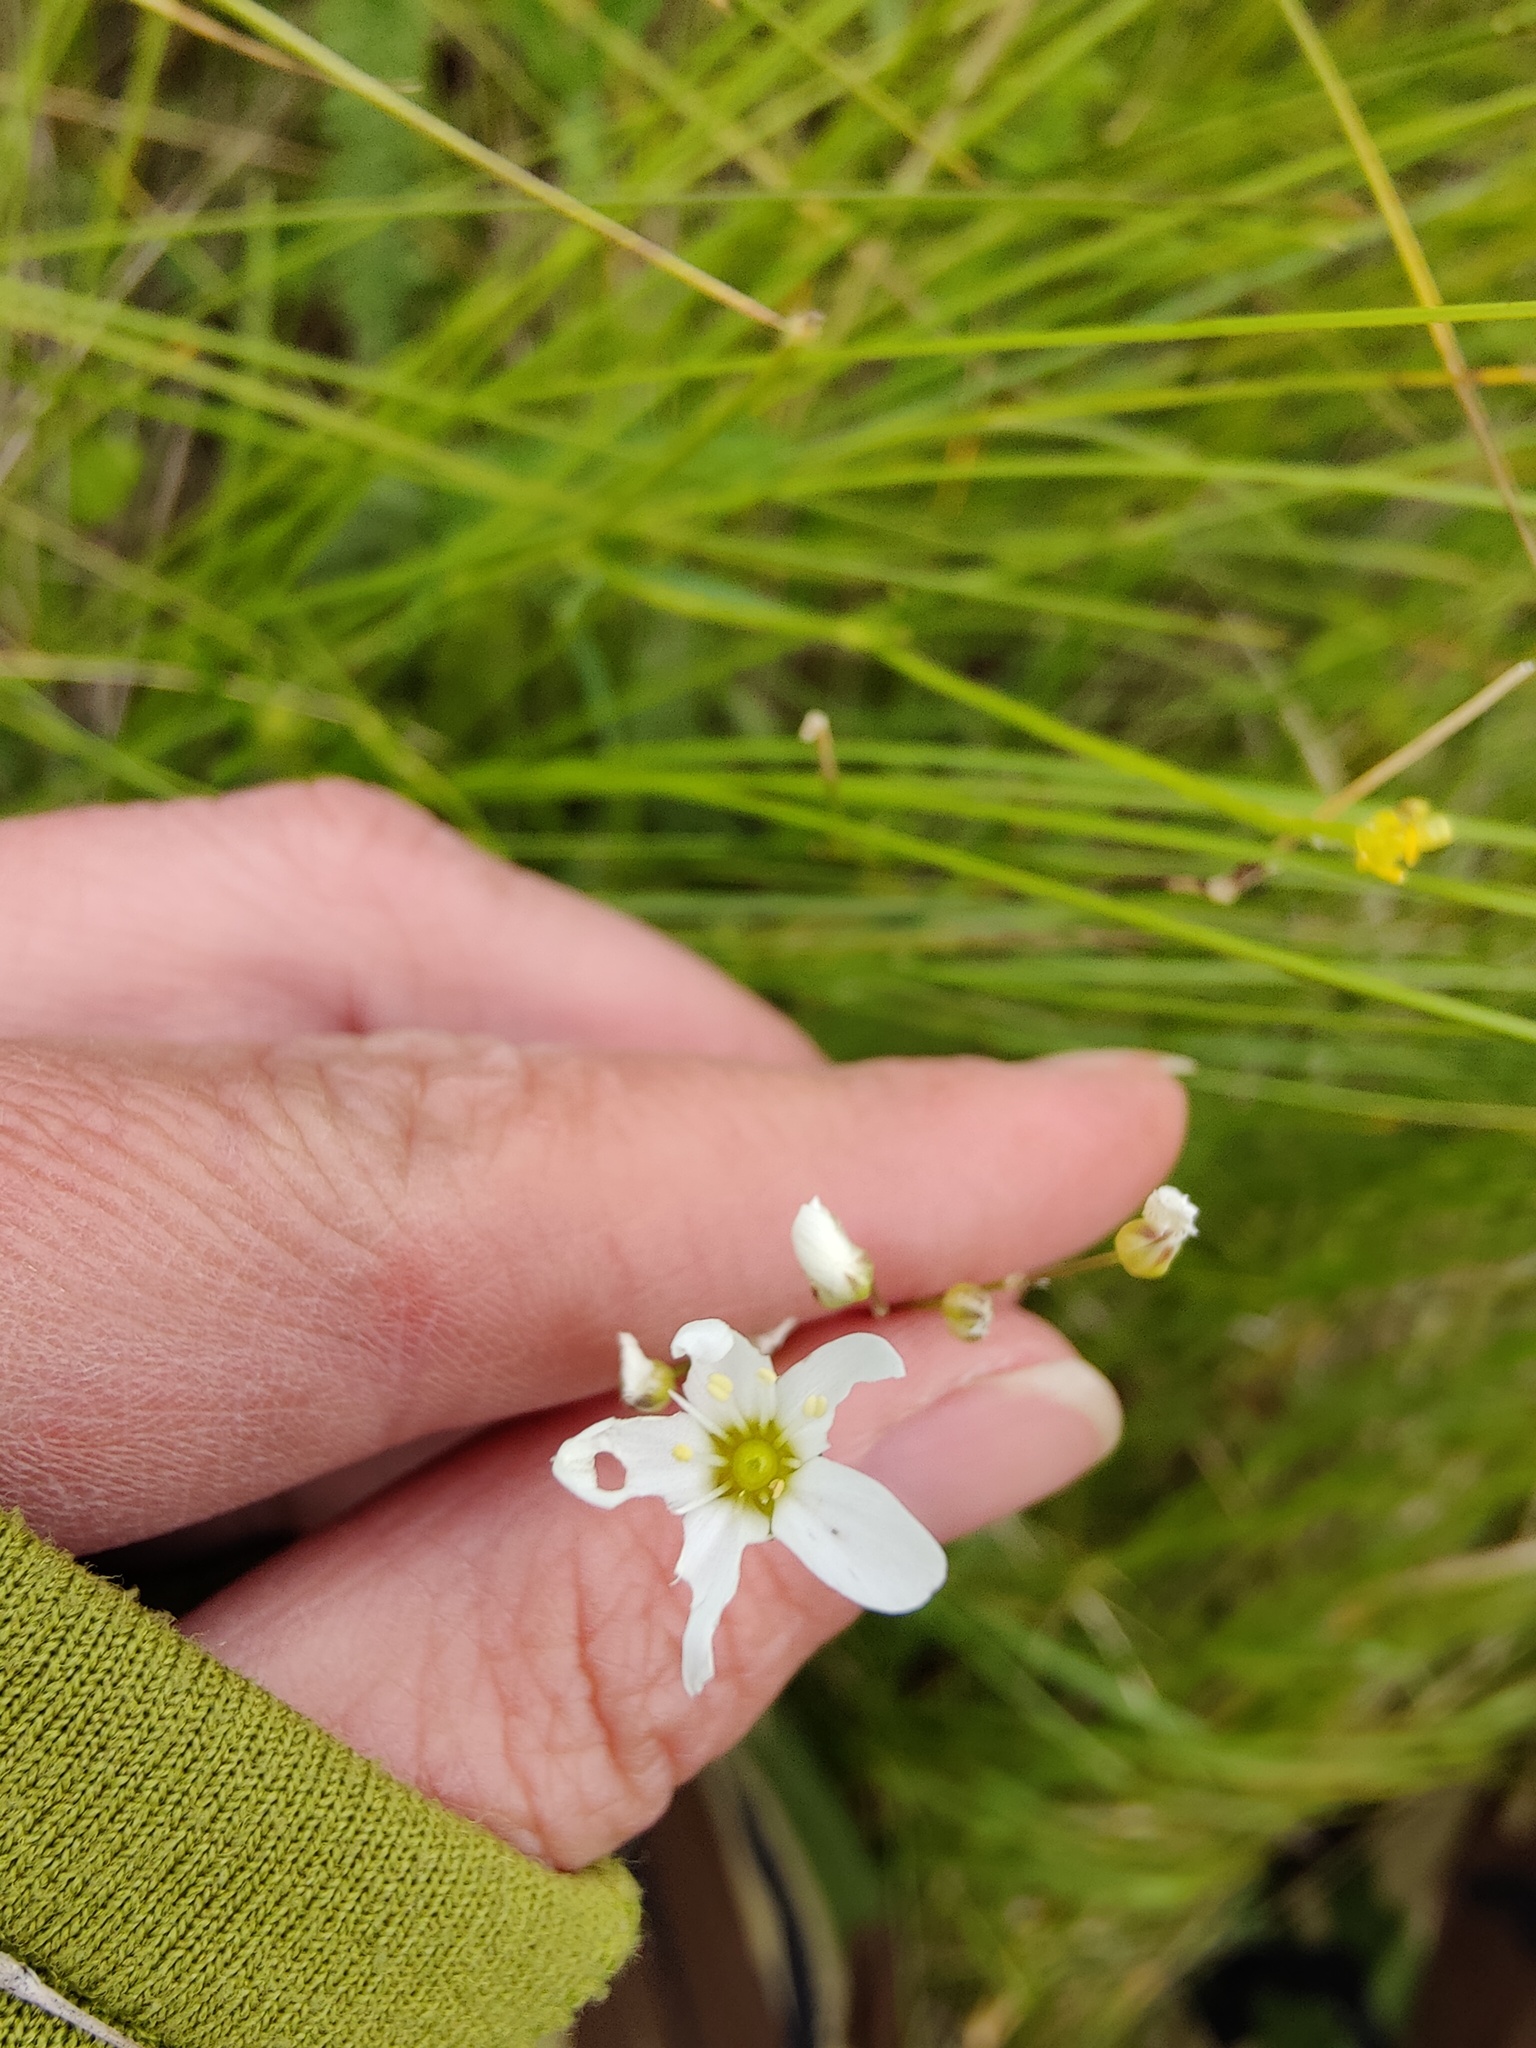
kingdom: Plantae
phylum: Tracheophyta
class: Magnoliopsida
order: Caryophyllales
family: Caryophyllaceae
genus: Eremogone
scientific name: Eremogone saxatilis
